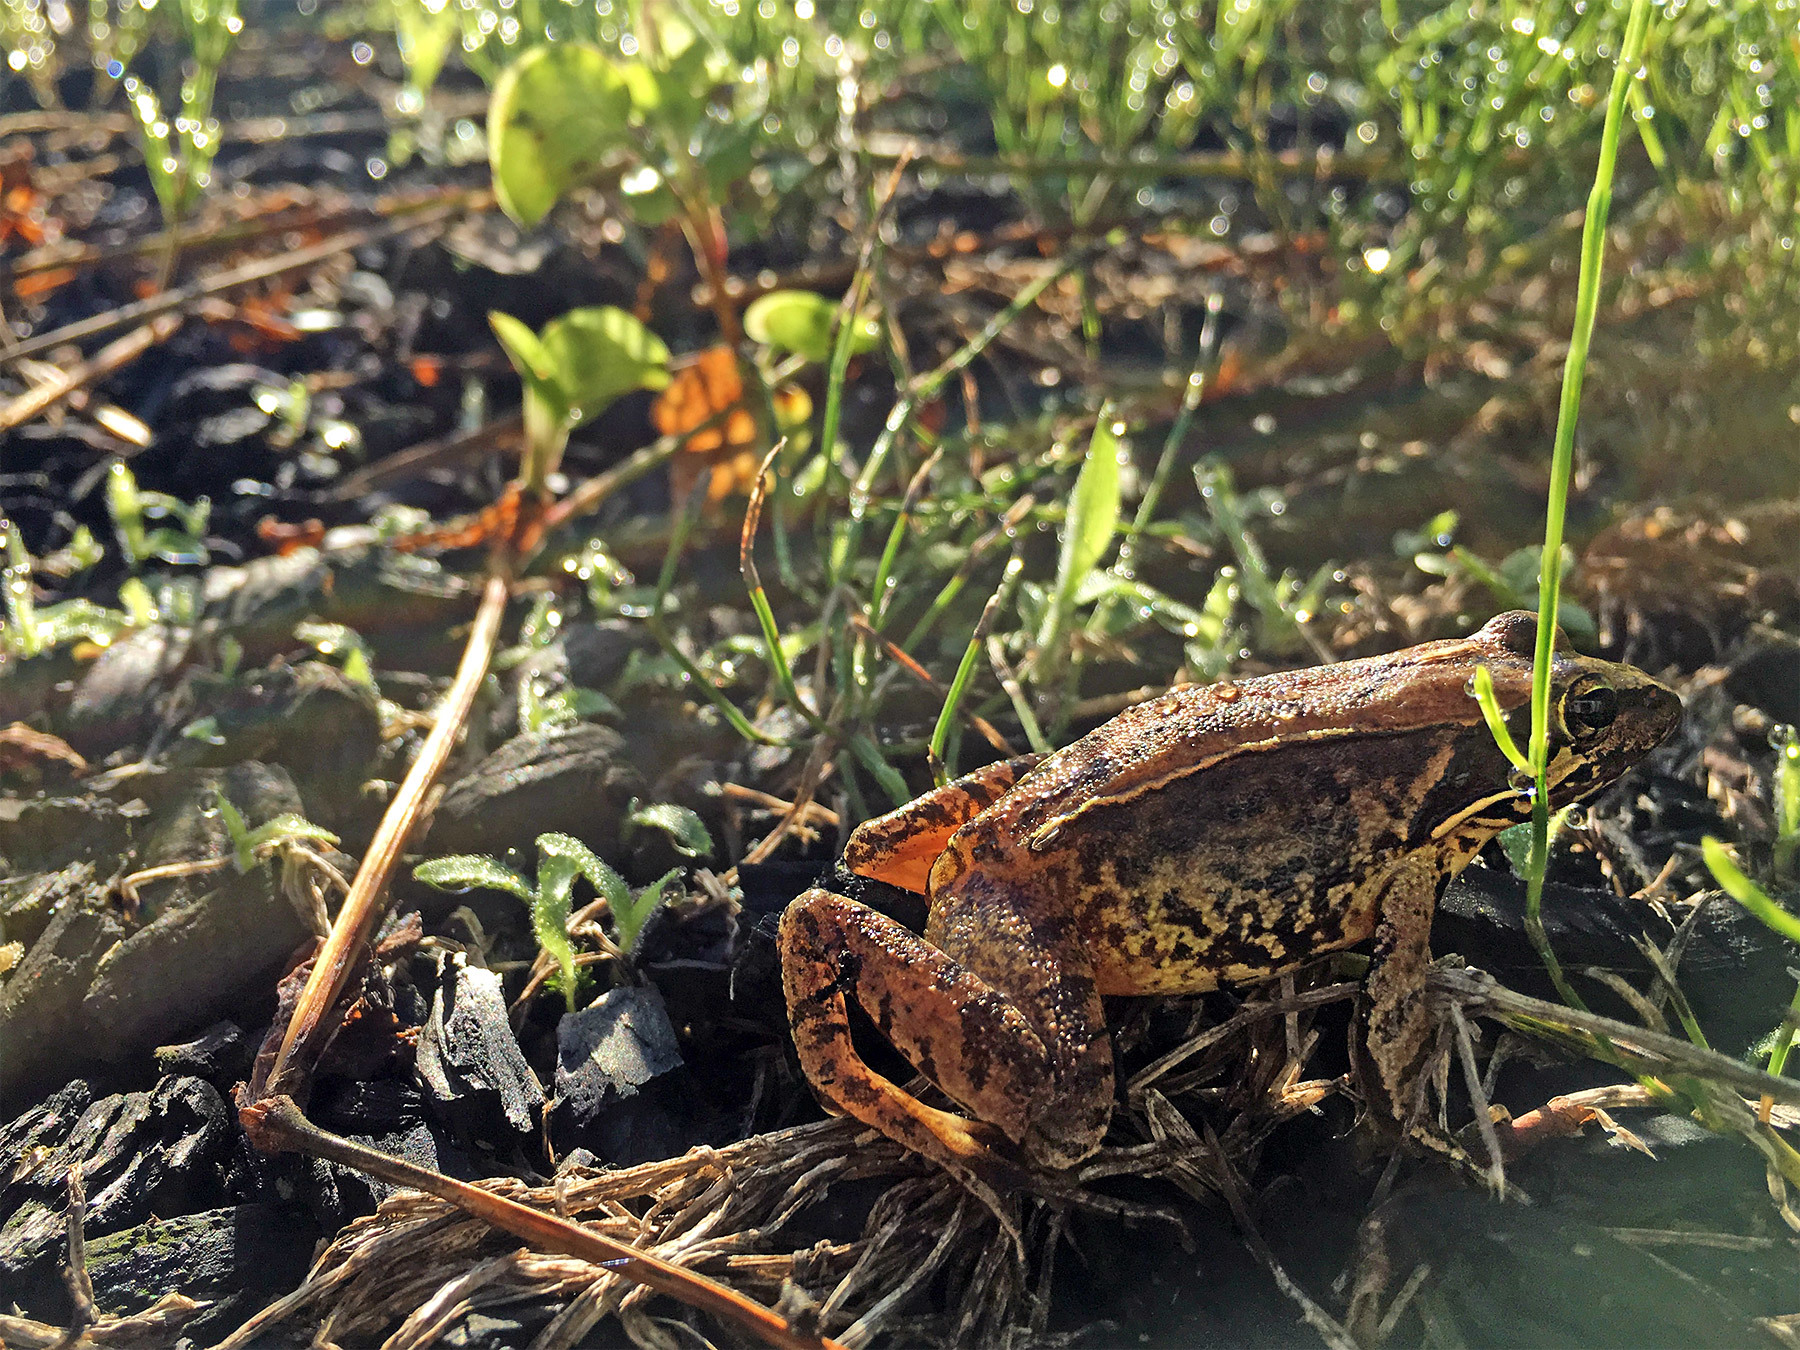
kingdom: Animalia
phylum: Chordata
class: Amphibia
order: Anura
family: Ranidae
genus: Rana
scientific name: Rana japonica
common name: Japanese brown frog
